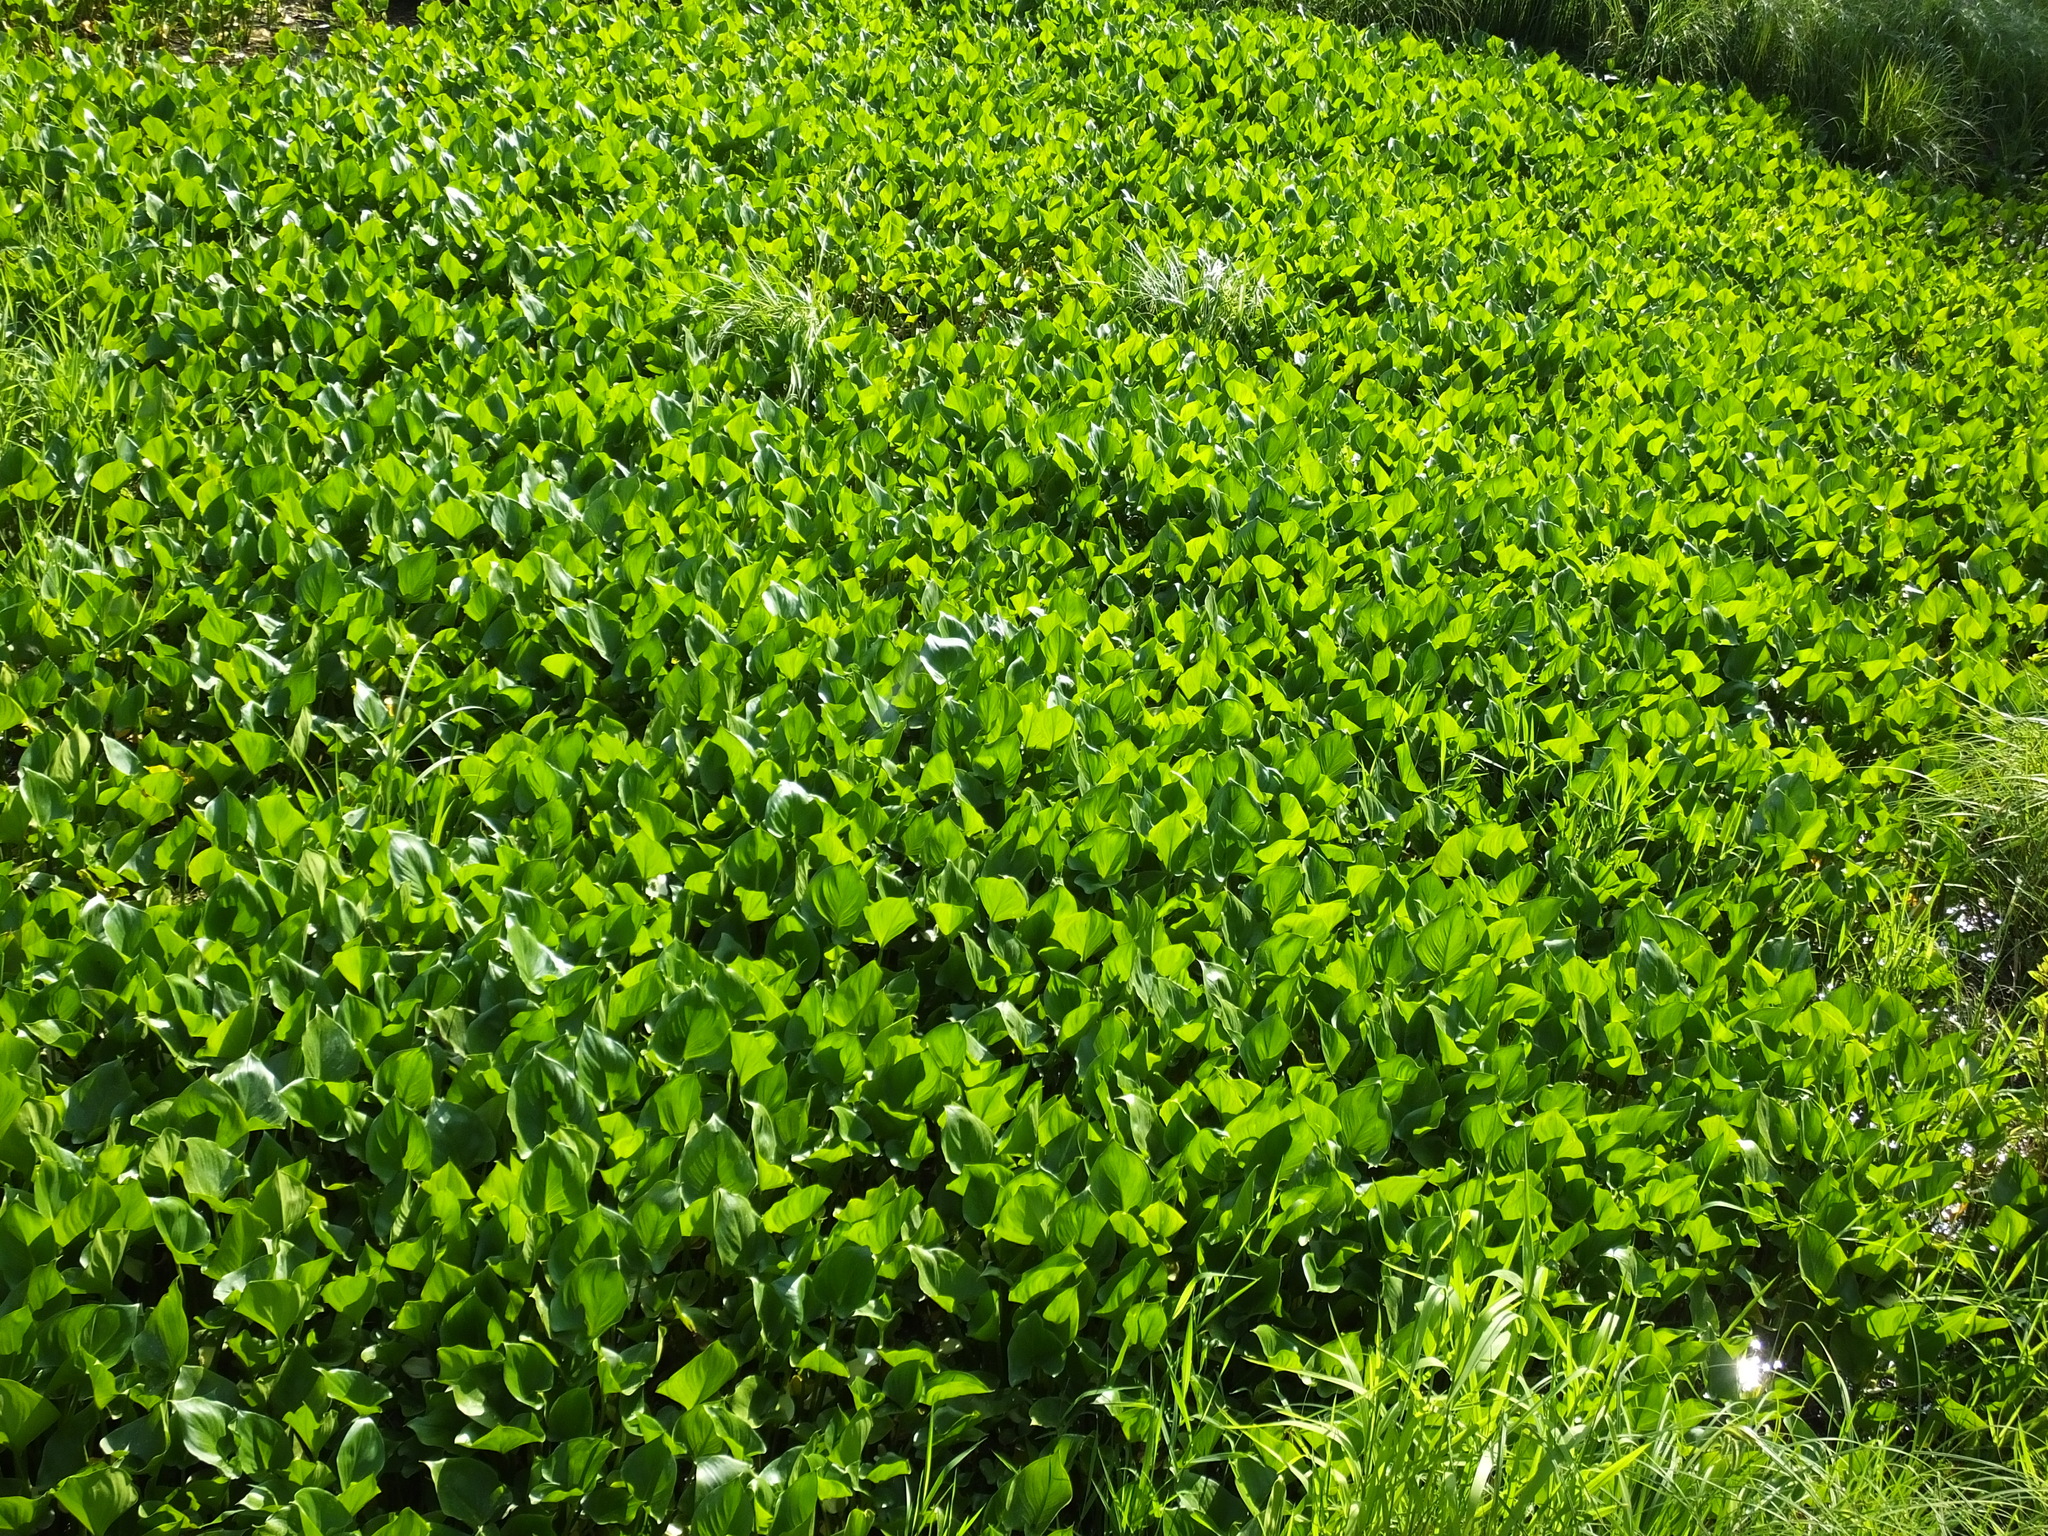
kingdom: Plantae
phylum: Tracheophyta
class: Liliopsida
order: Alismatales
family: Araceae
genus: Calla
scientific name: Calla palustris
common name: Bog arum
